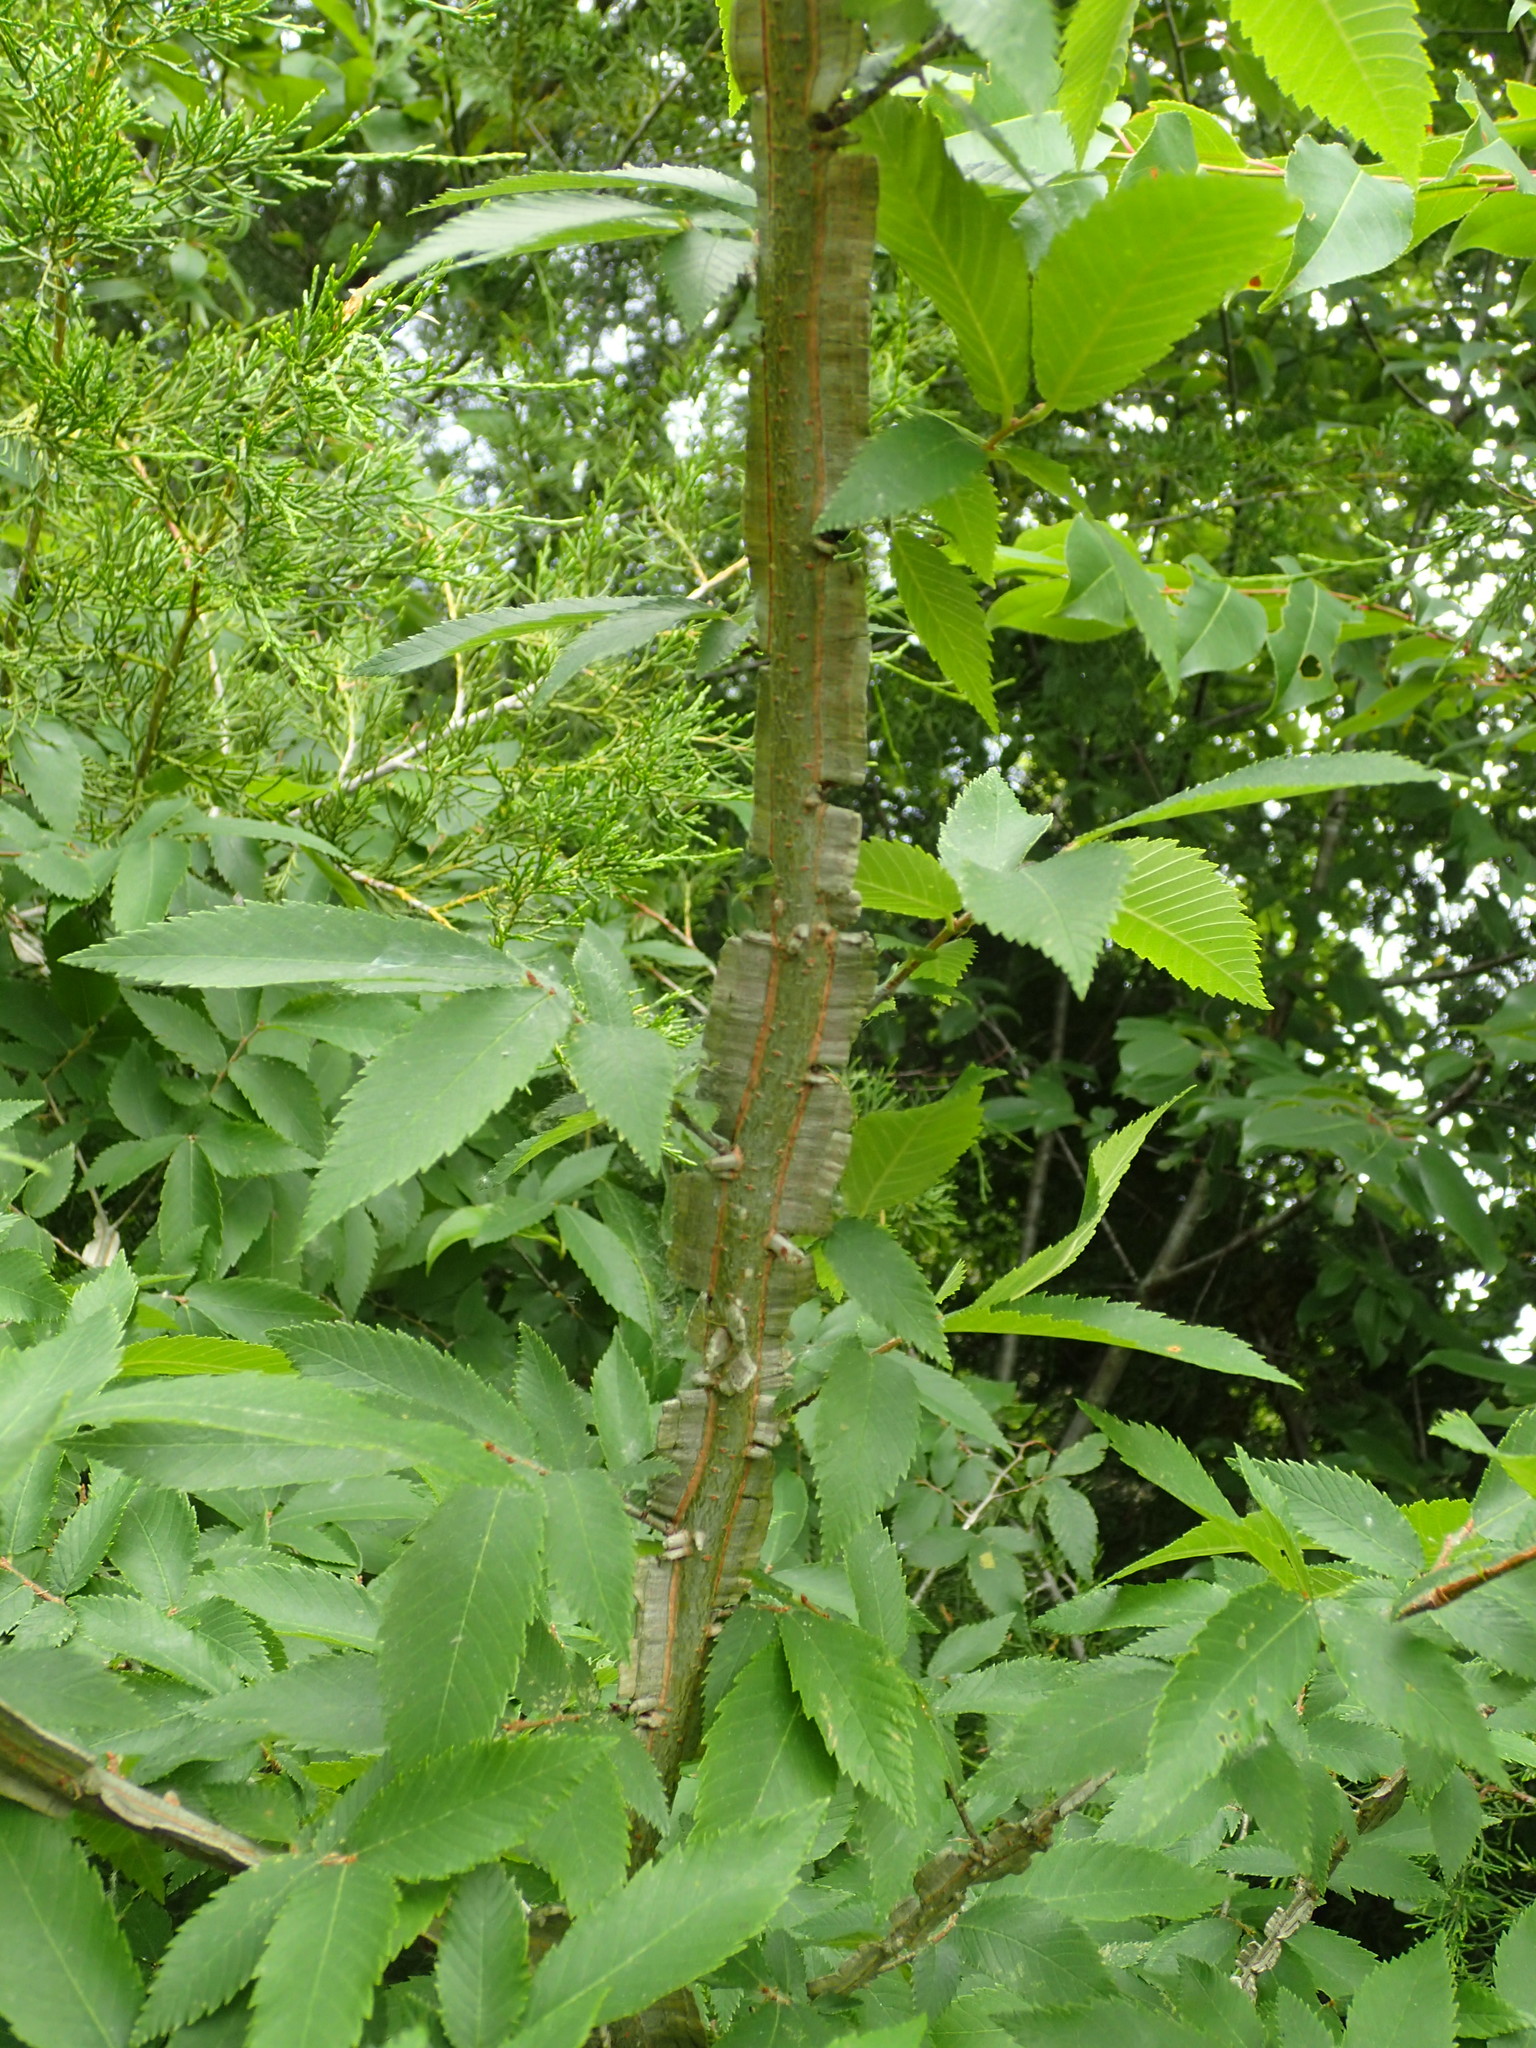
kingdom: Plantae
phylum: Tracheophyta
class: Magnoliopsida
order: Rosales
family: Ulmaceae
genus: Ulmus
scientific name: Ulmus alata
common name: Winged elm
